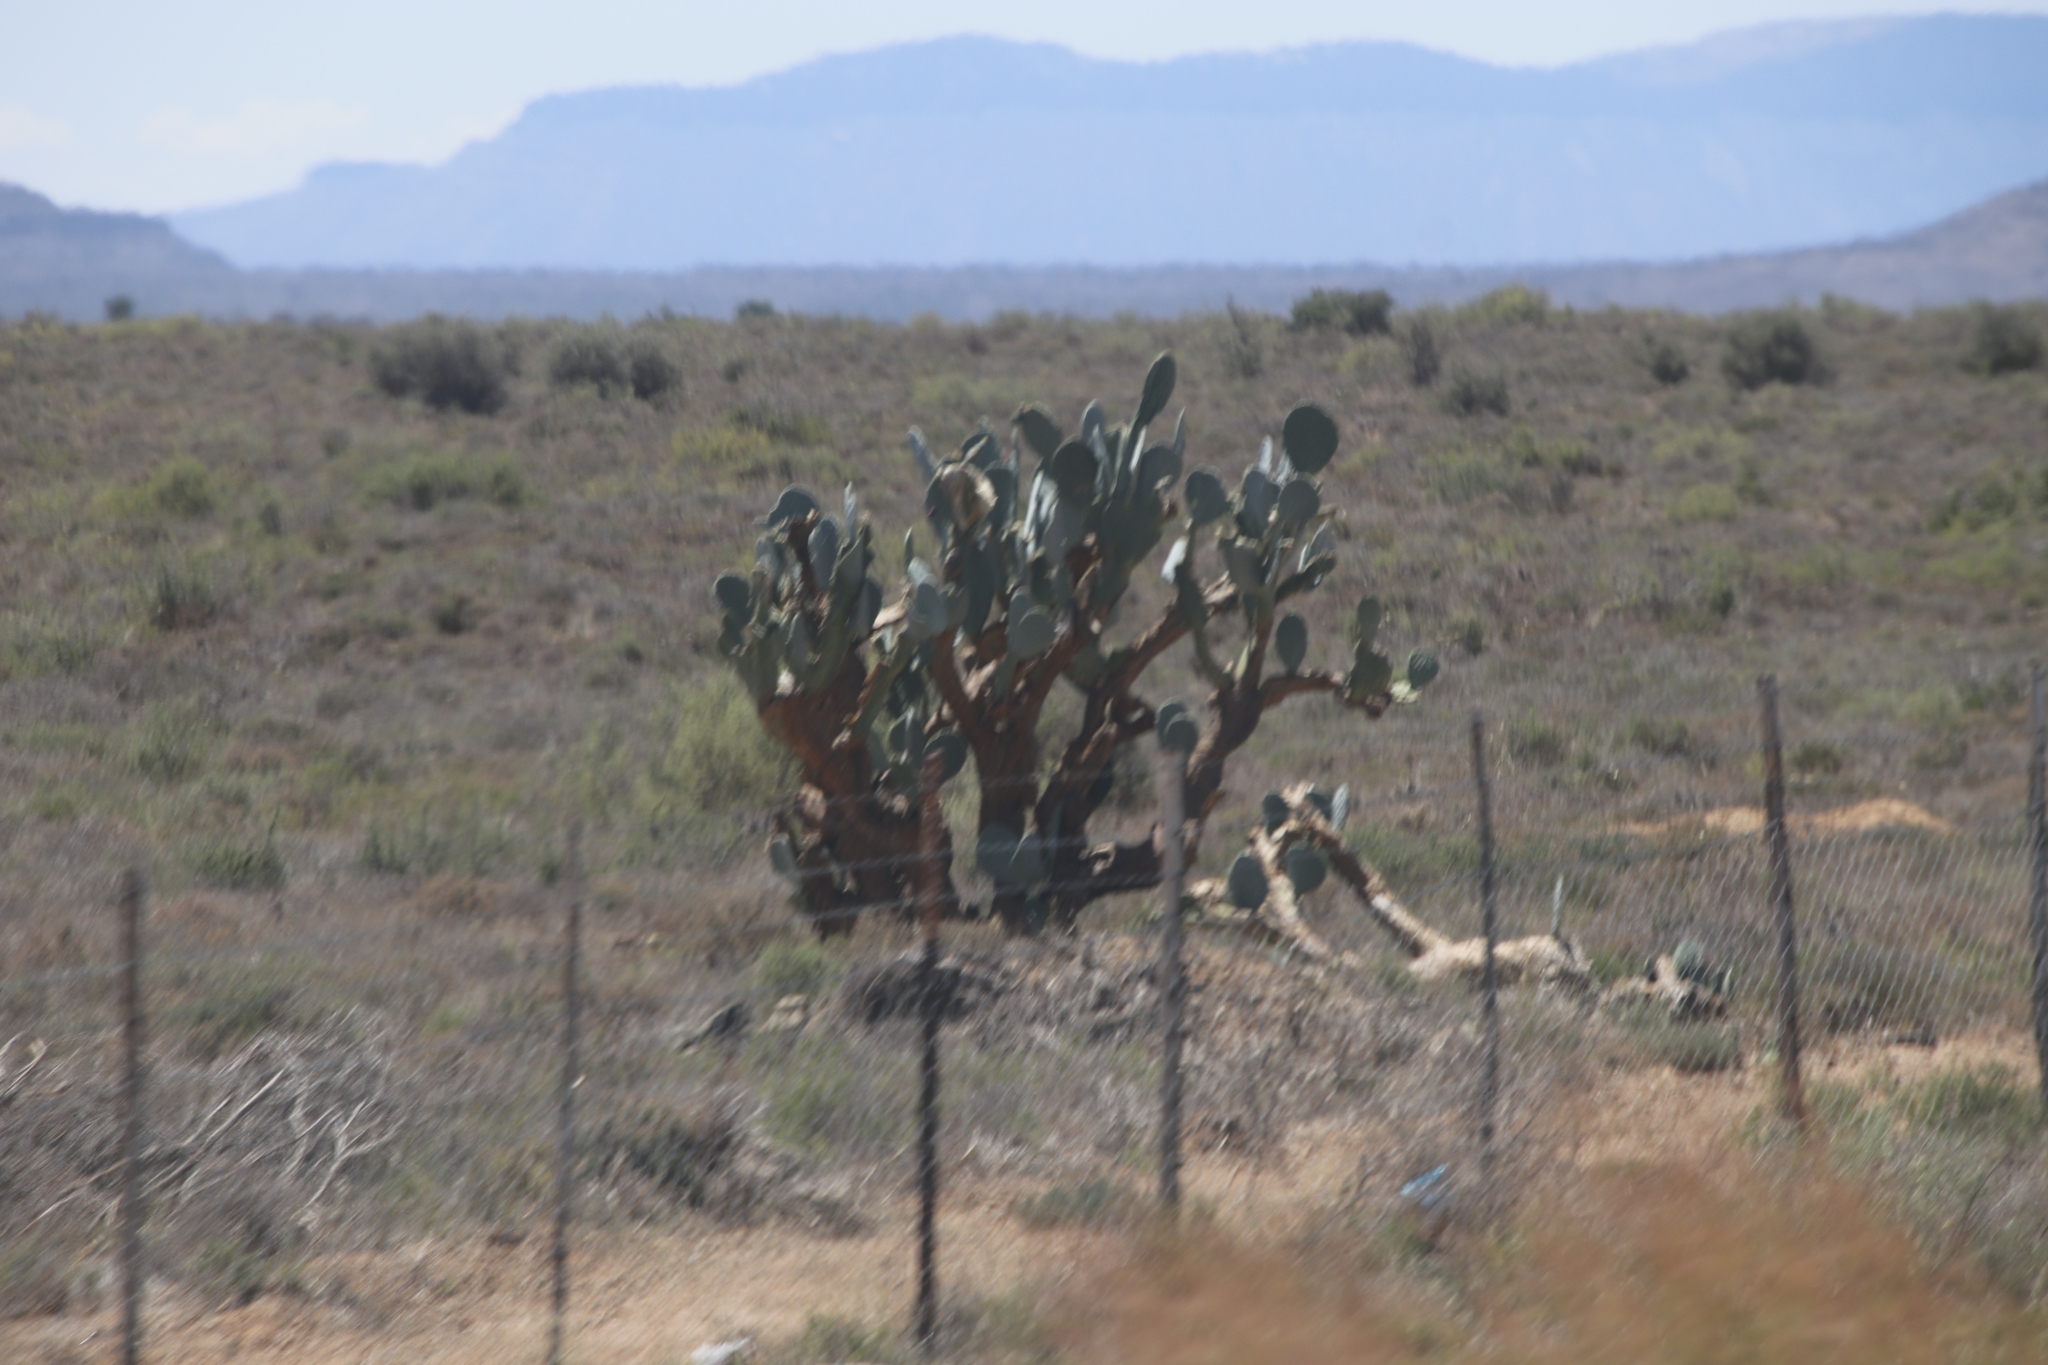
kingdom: Plantae
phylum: Tracheophyta
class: Magnoliopsida
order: Caryophyllales
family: Cactaceae
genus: Opuntia
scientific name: Opuntia ficus-indica
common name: Barbary fig
